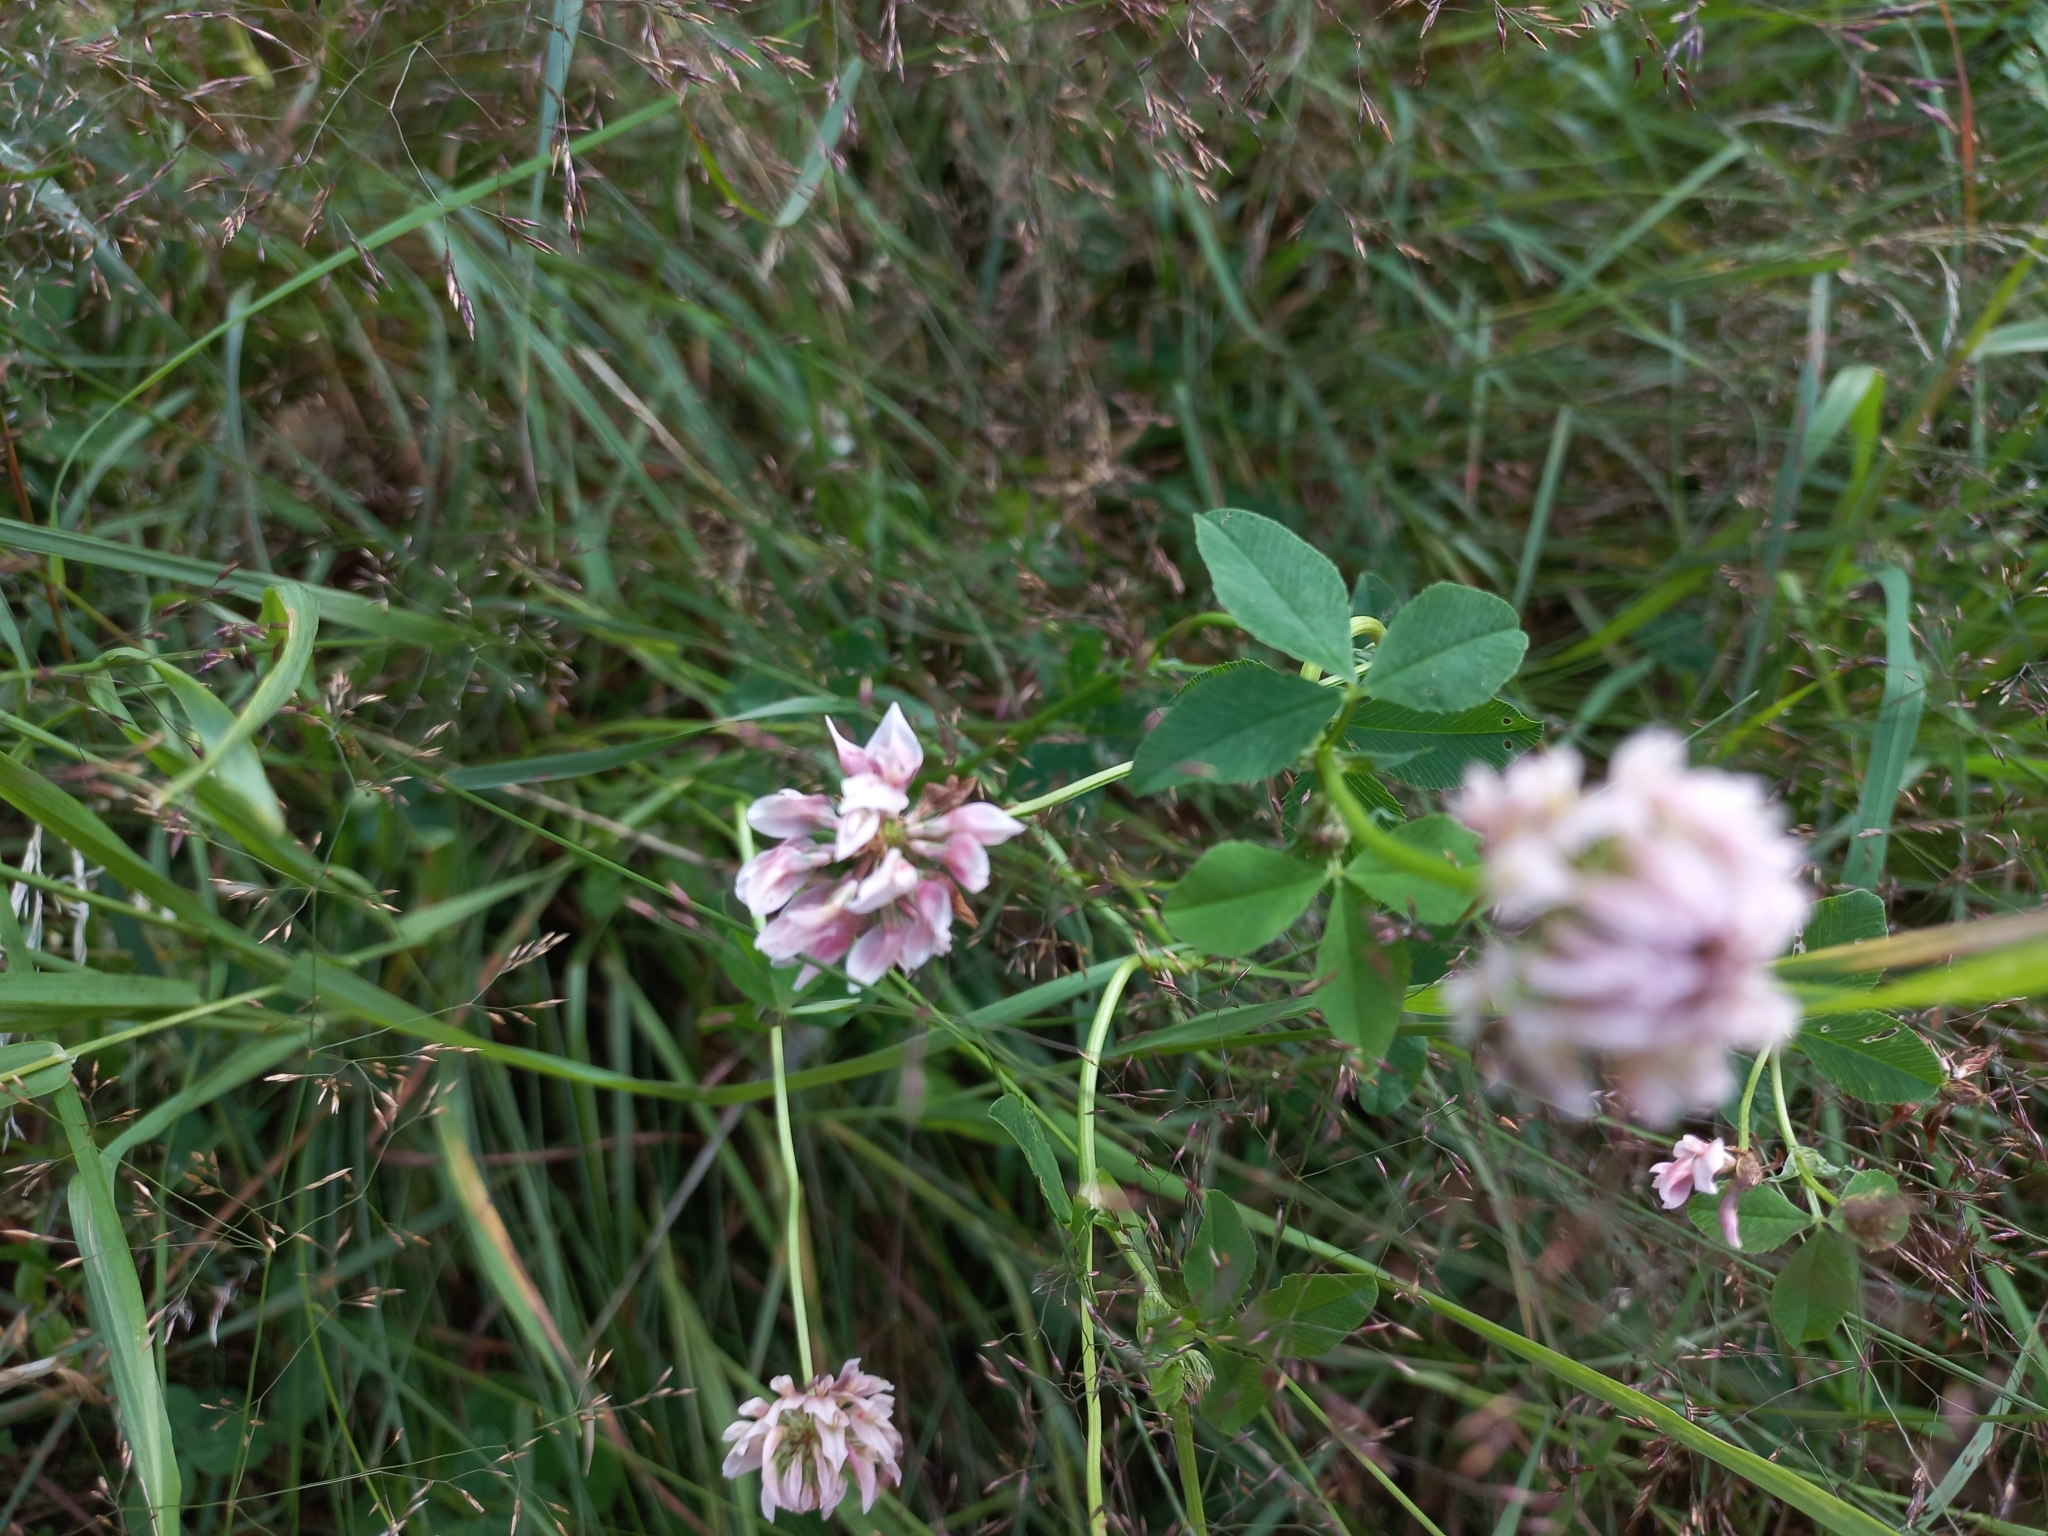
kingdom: Plantae
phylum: Tracheophyta
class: Magnoliopsida
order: Fabales
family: Fabaceae
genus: Trifolium
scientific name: Trifolium hybridum
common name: Alsike clover
